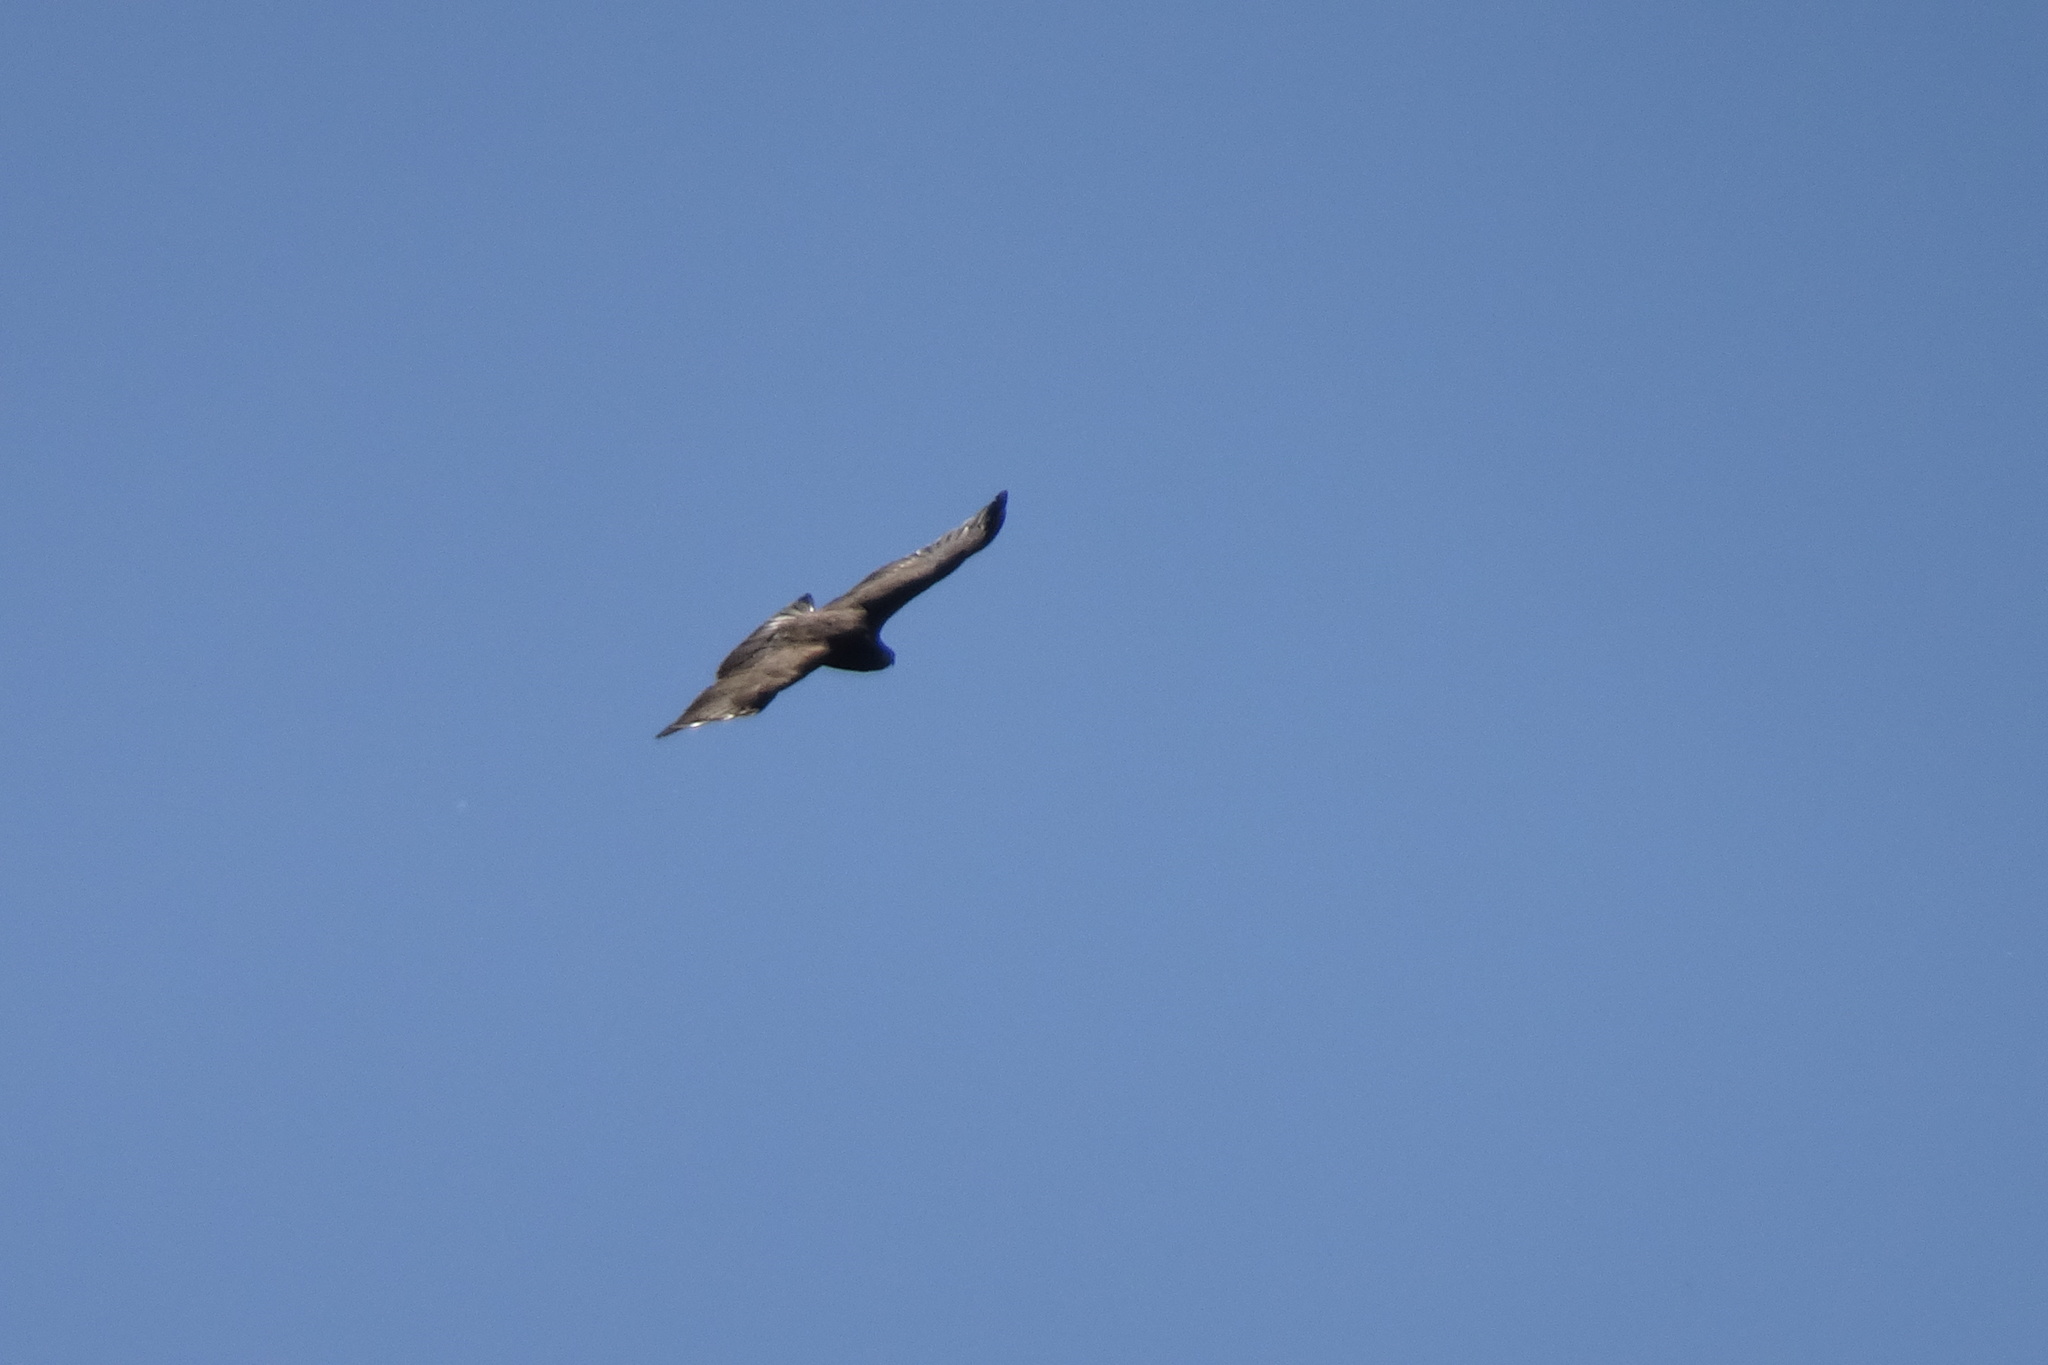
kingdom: Animalia
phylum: Chordata
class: Aves
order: Accipitriformes
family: Accipitridae
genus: Buteo
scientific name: Buteo buteo
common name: Common buzzard
